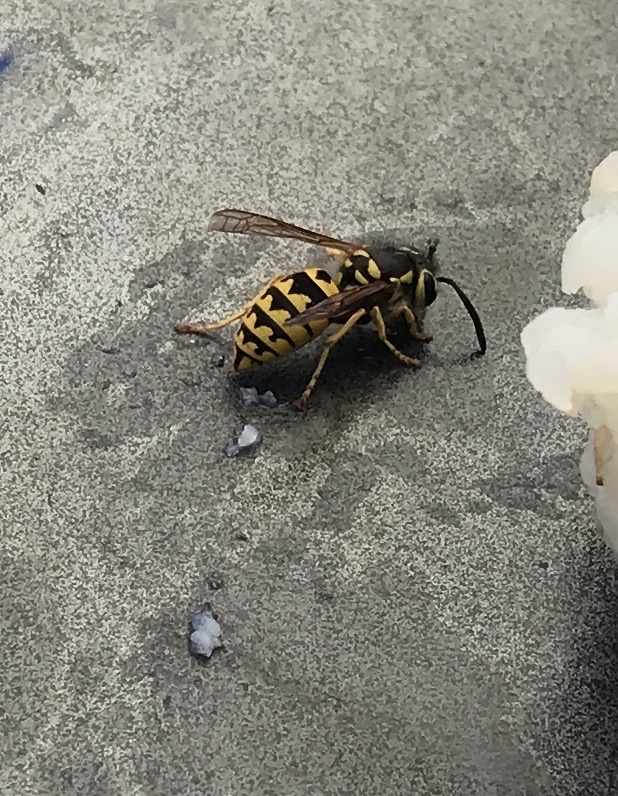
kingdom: Animalia
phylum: Arthropoda
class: Insecta
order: Hymenoptera
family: Vespidae
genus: Vespula
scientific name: Vespula pensylvanica
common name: Western yellowjacket
